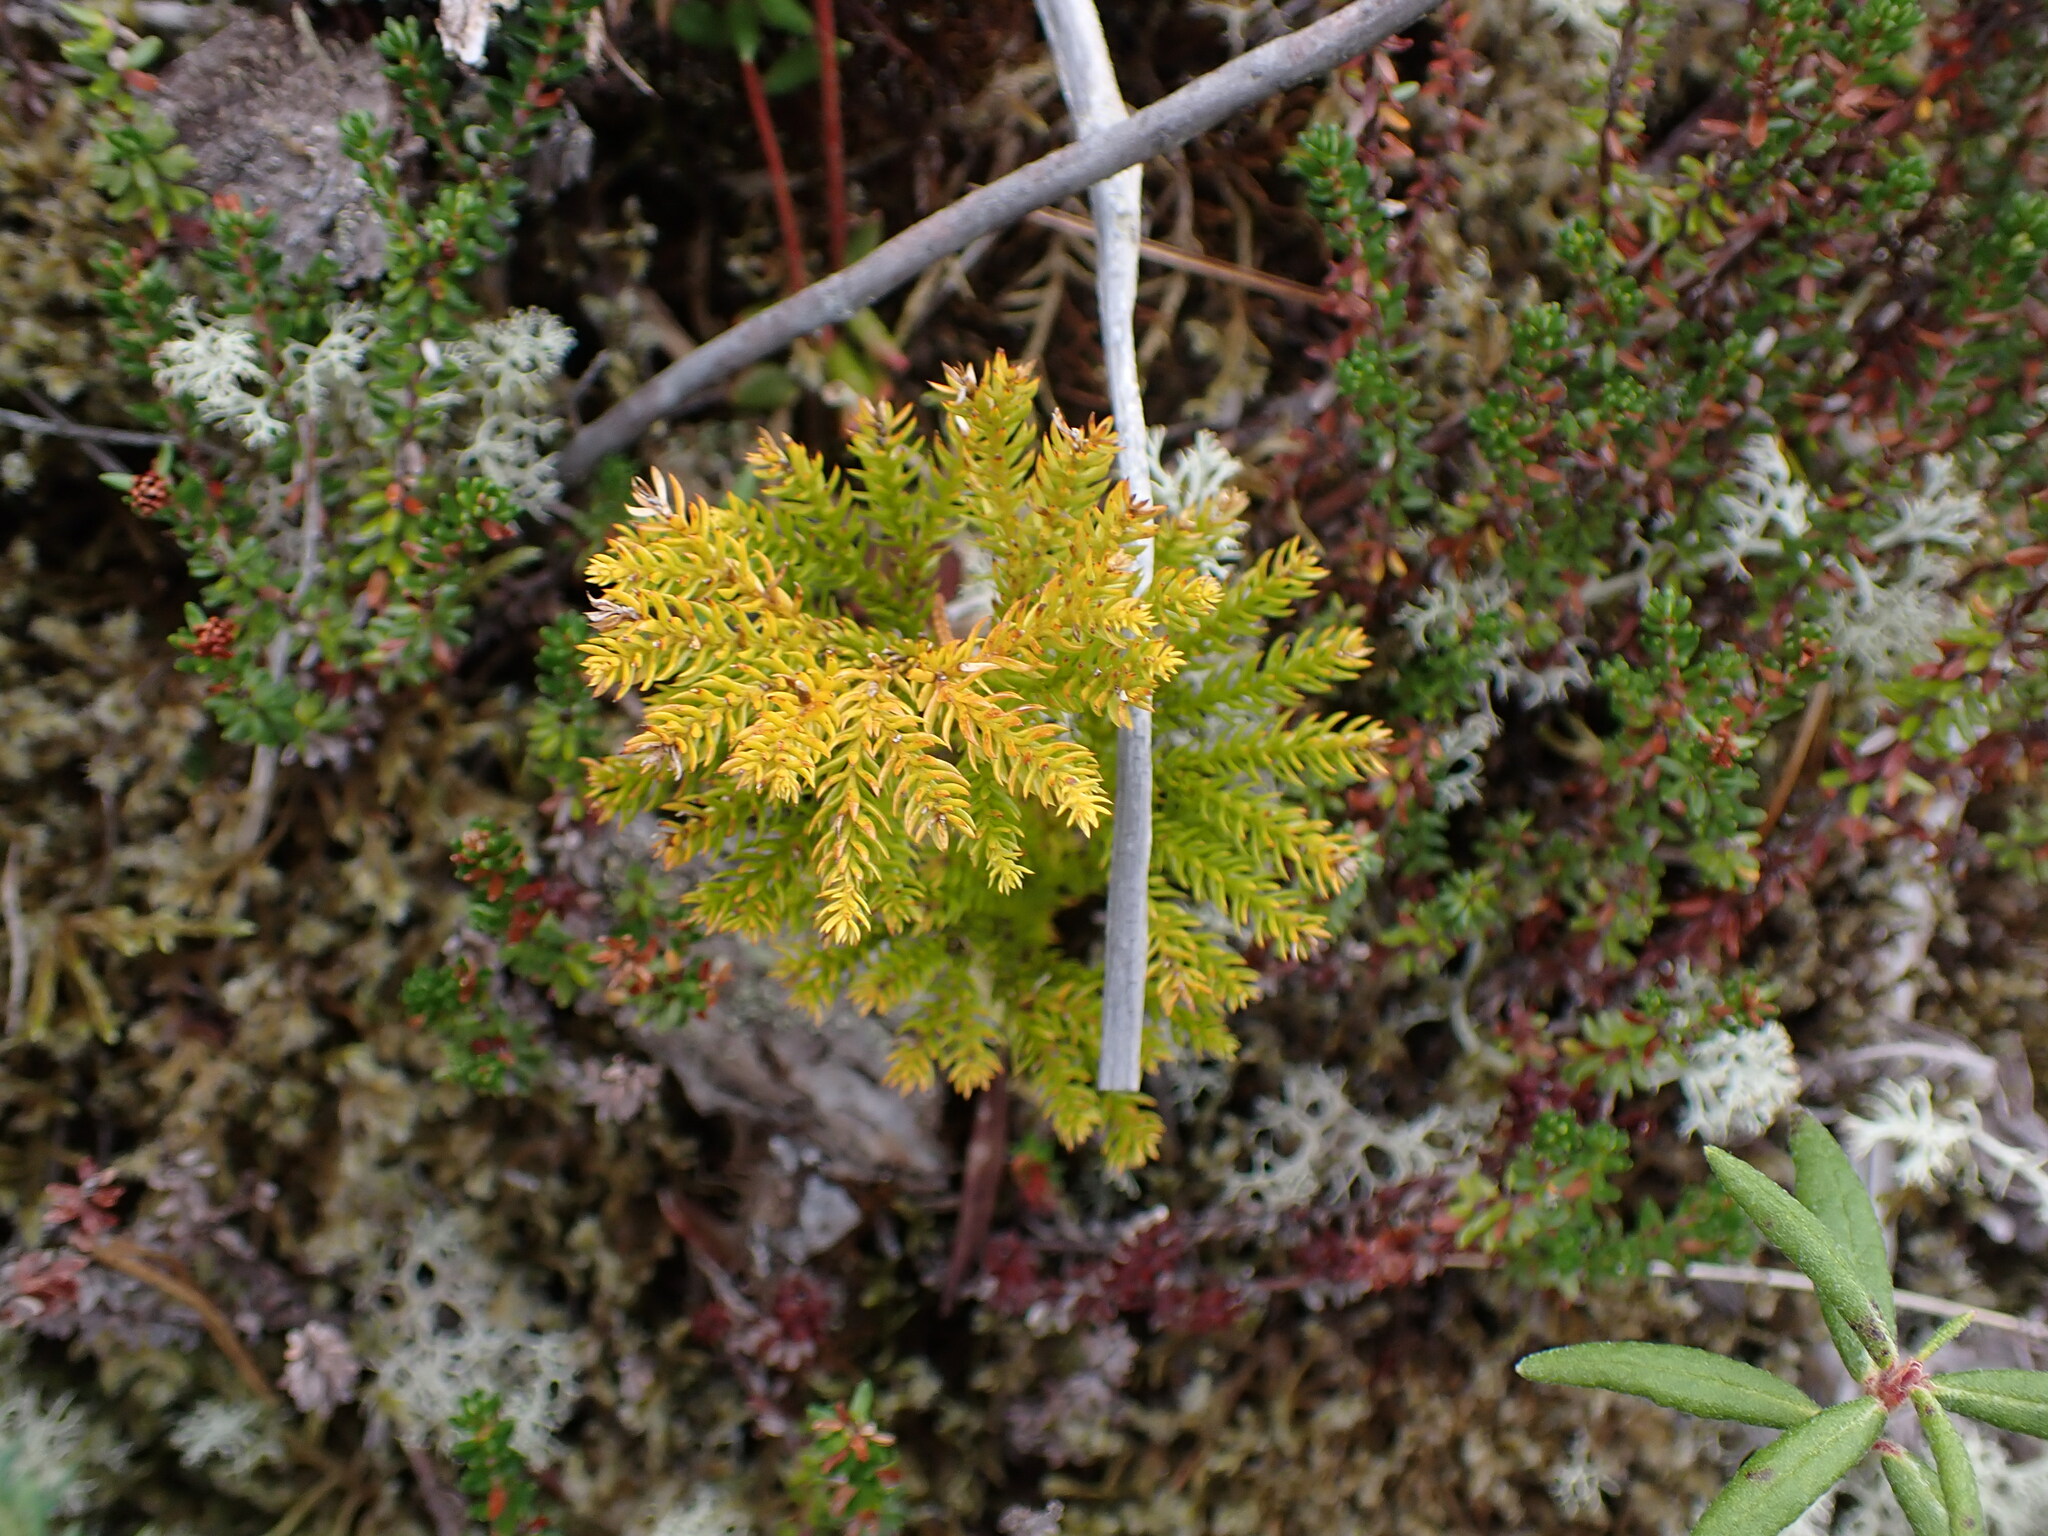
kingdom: Plantae
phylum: Tracheophyta
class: Lycopodiopsida
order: Lycopodiales
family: Lycopodiaceae
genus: Dendrolycopodium
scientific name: Dendrolycopodium dendroideum
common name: Northern tree-clubmoss
